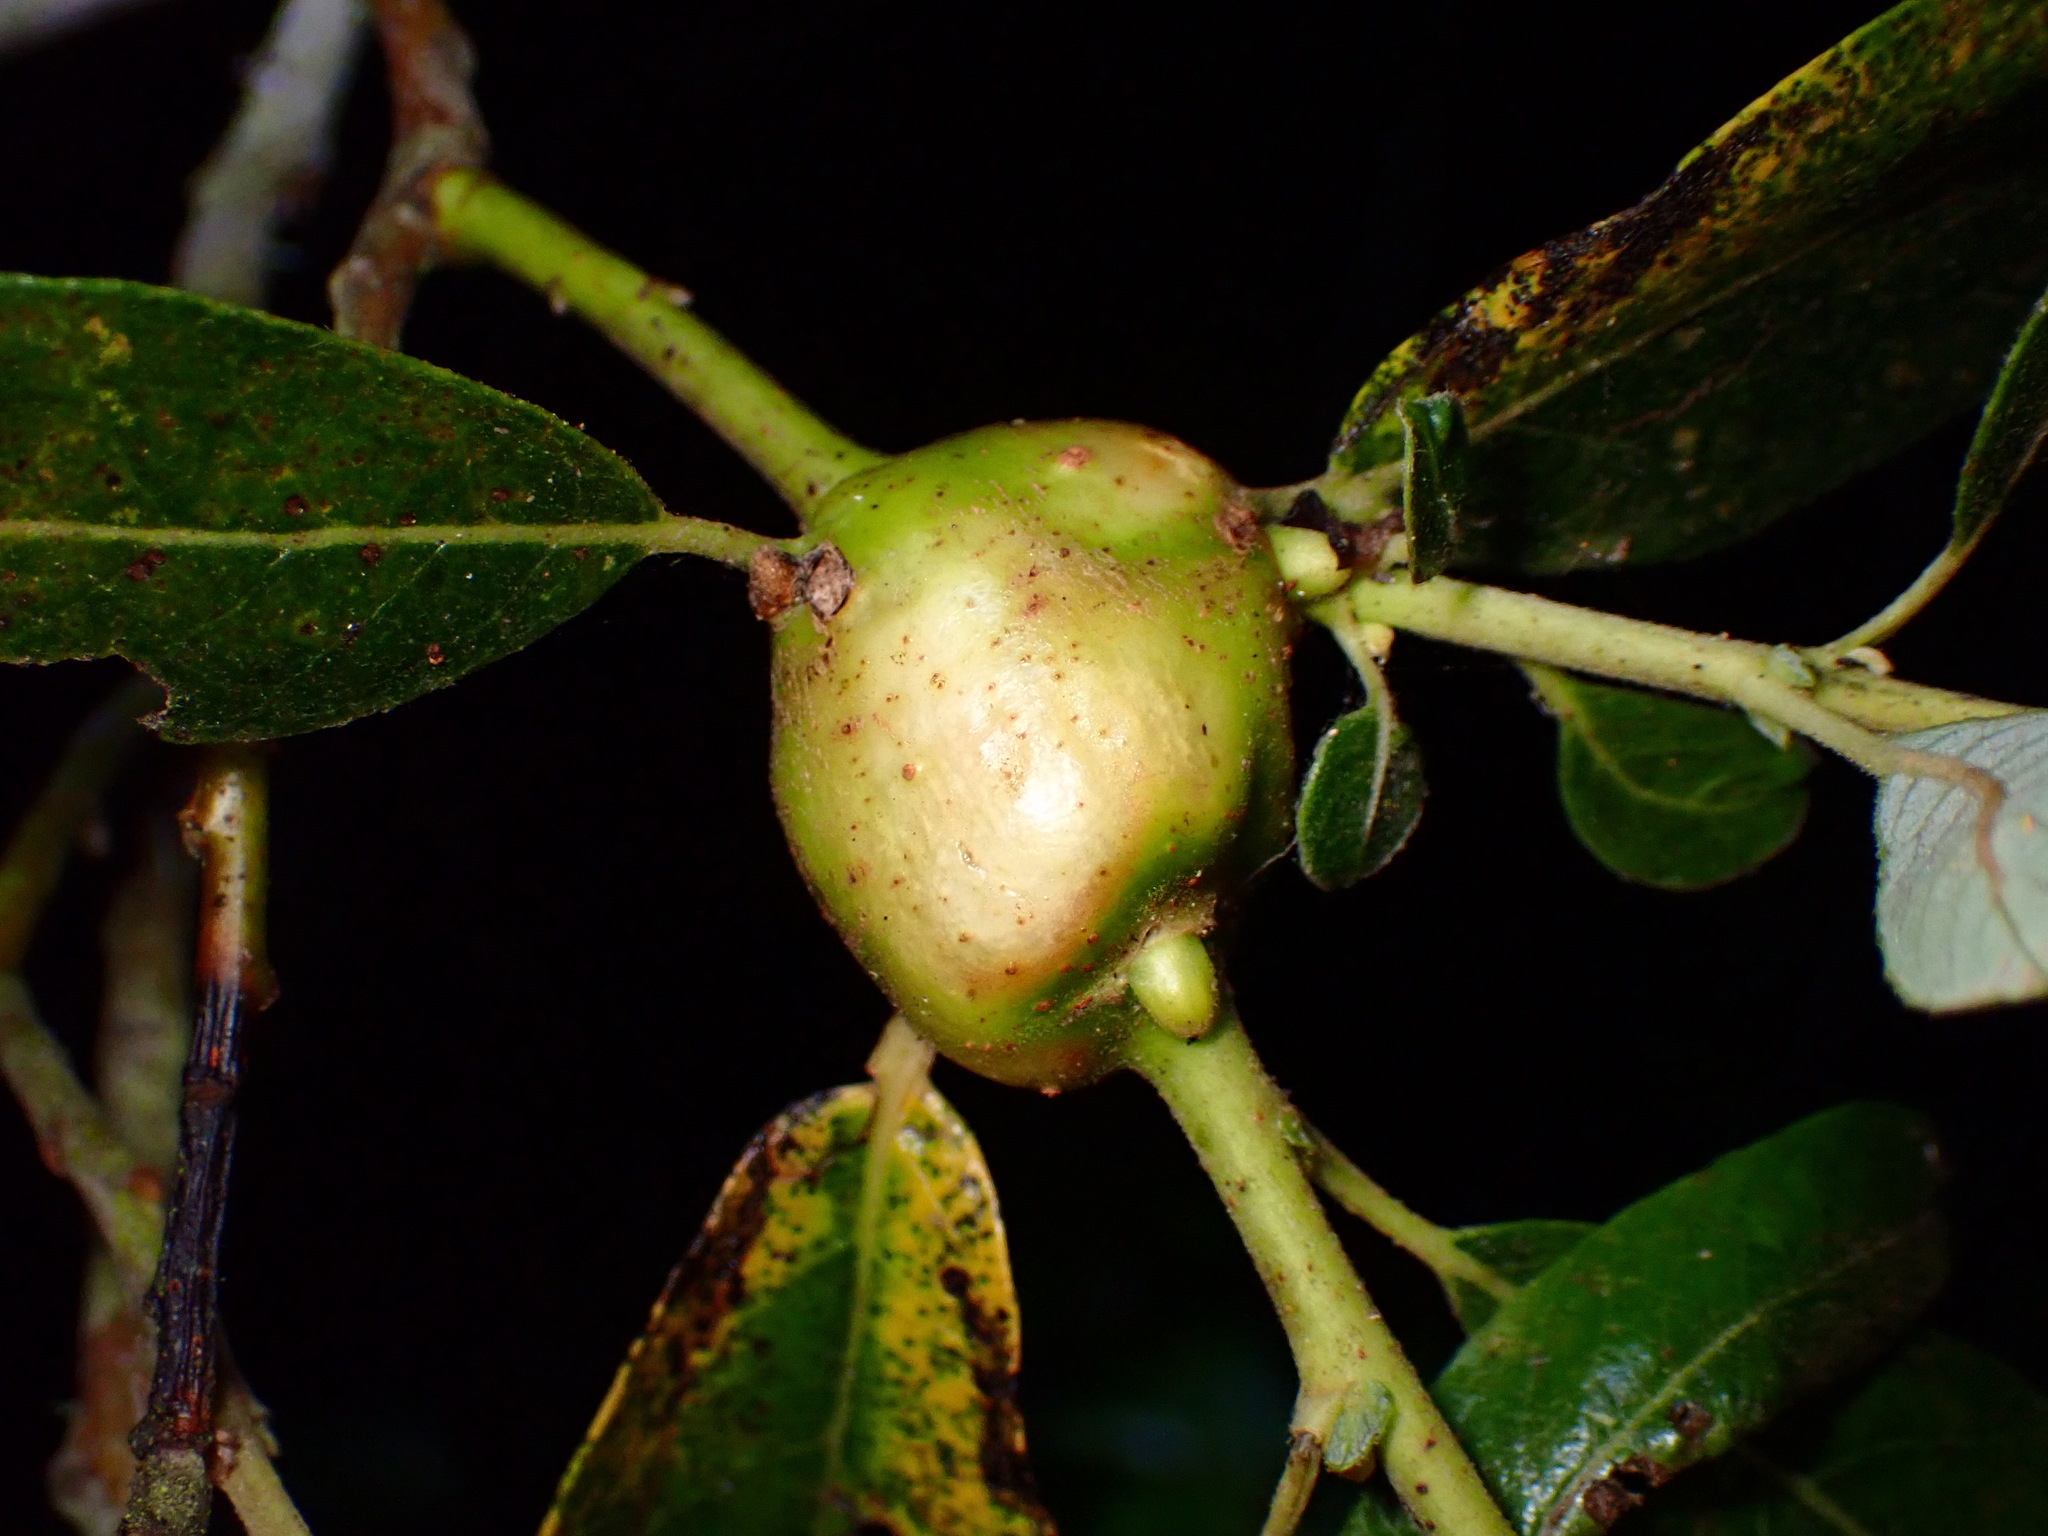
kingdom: Animalia
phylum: Arthropoda
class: Insecta
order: Diptera
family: Cecidomyiidae
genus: Rabdophaga
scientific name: Rabdophaga salicisbatatas
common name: Potato gall midge
